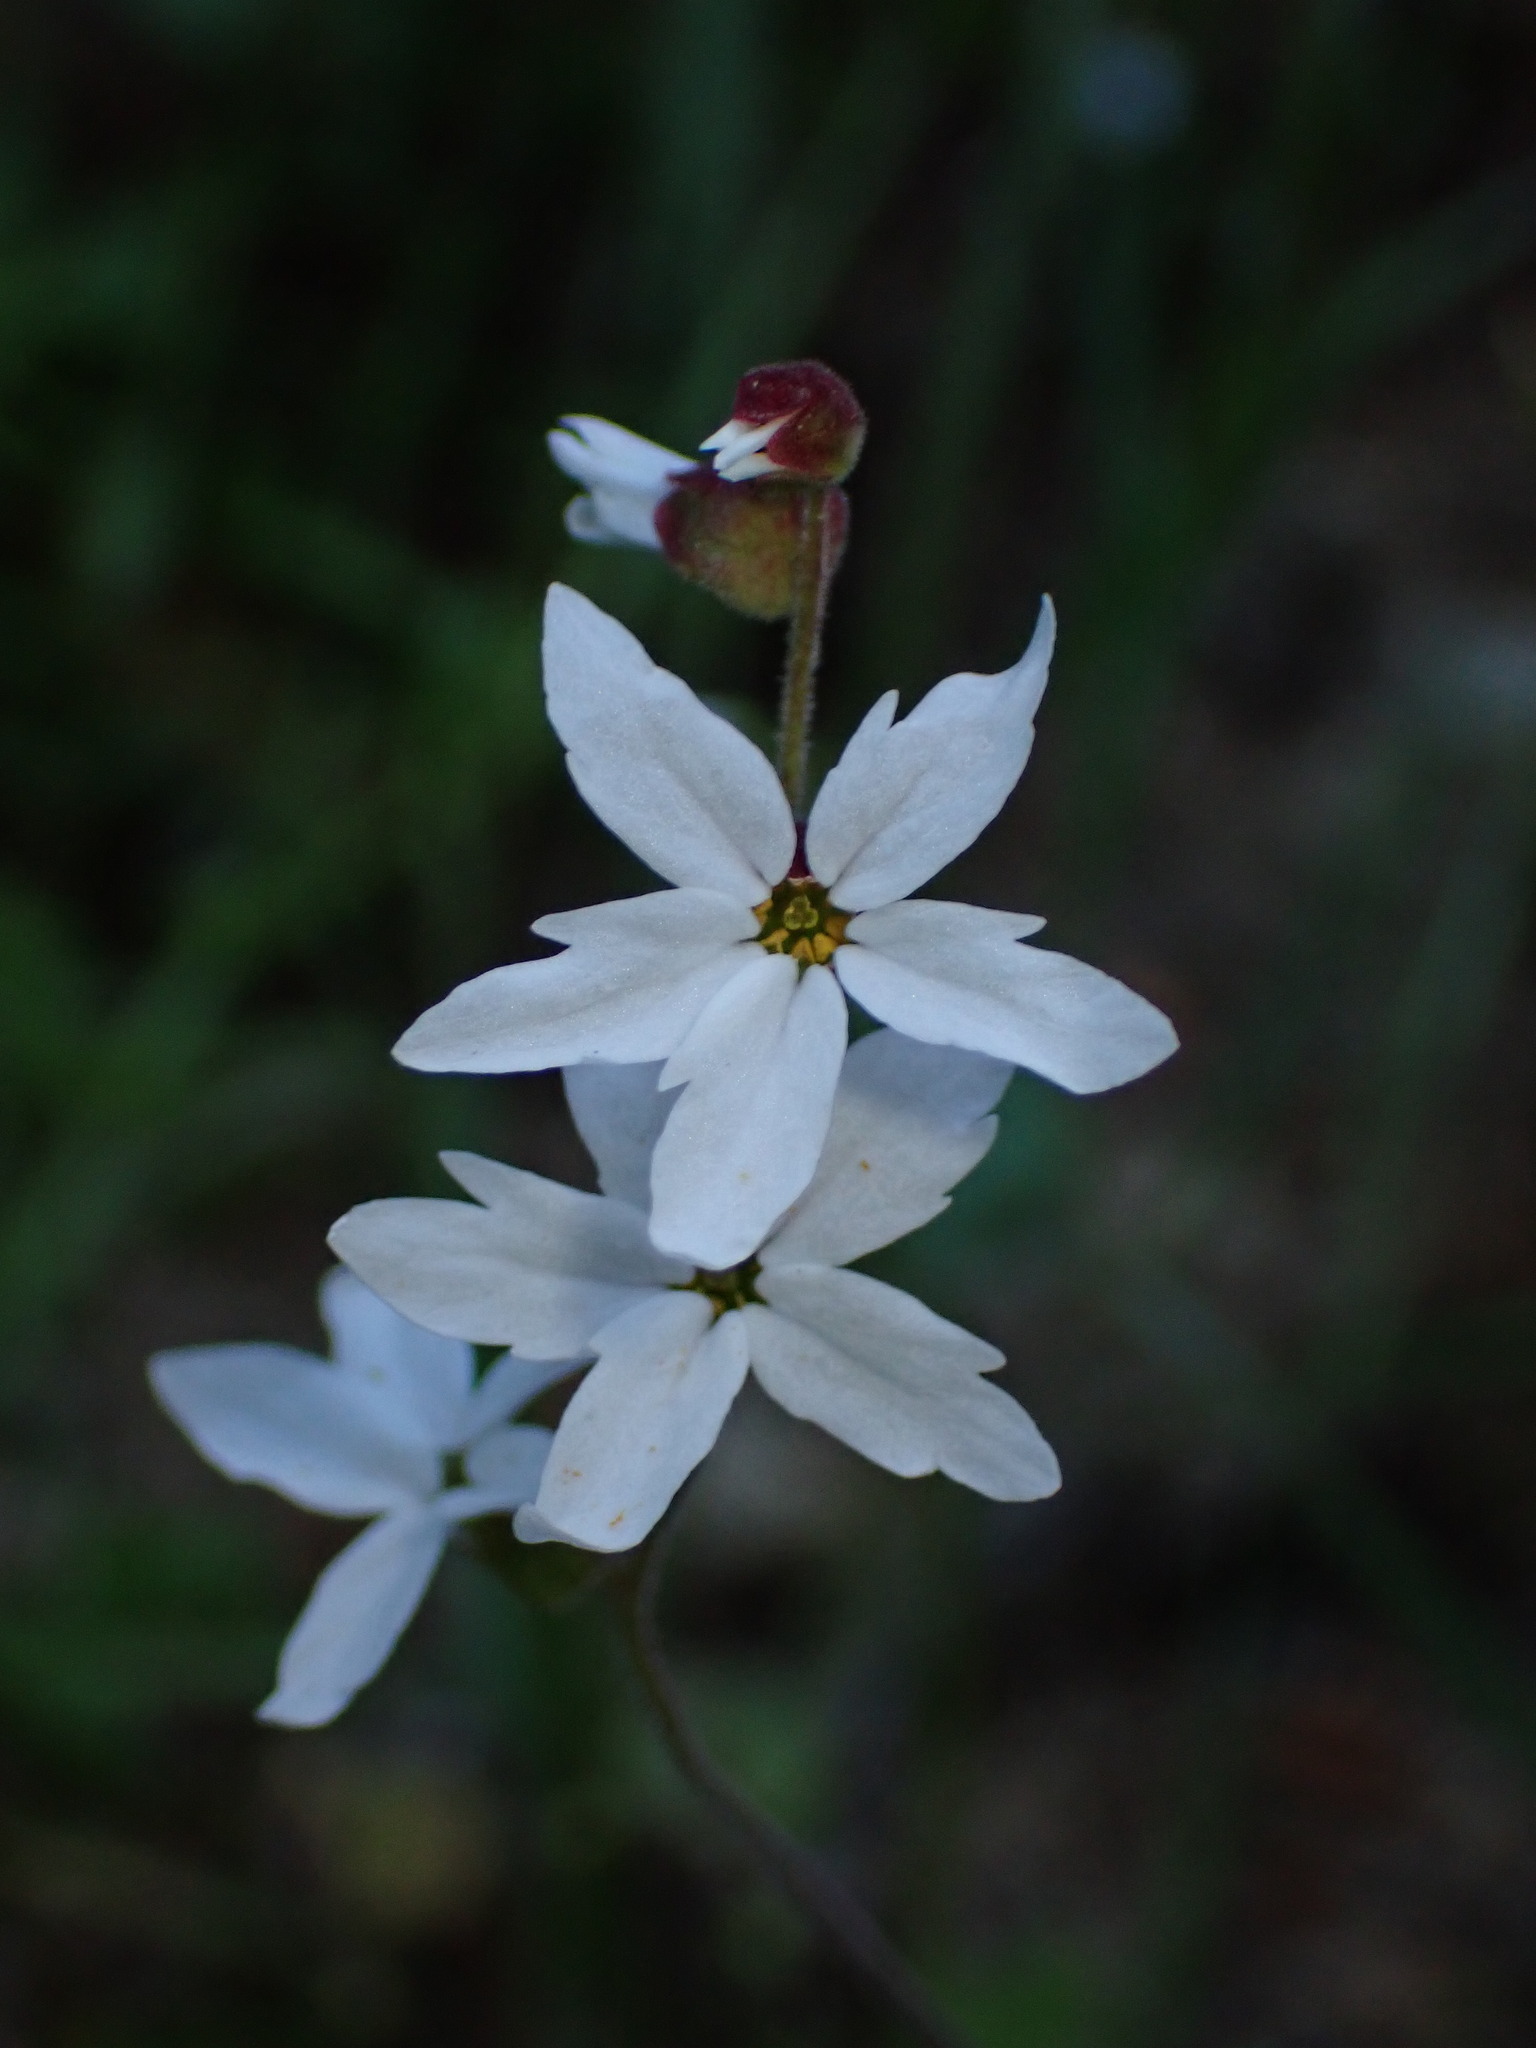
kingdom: Plantae
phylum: Tracheophyta
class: Magnoliopsida
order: Saxifragales
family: Saxifragaceae
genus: Lithophragma
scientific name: Lithophragma heterophyllum
